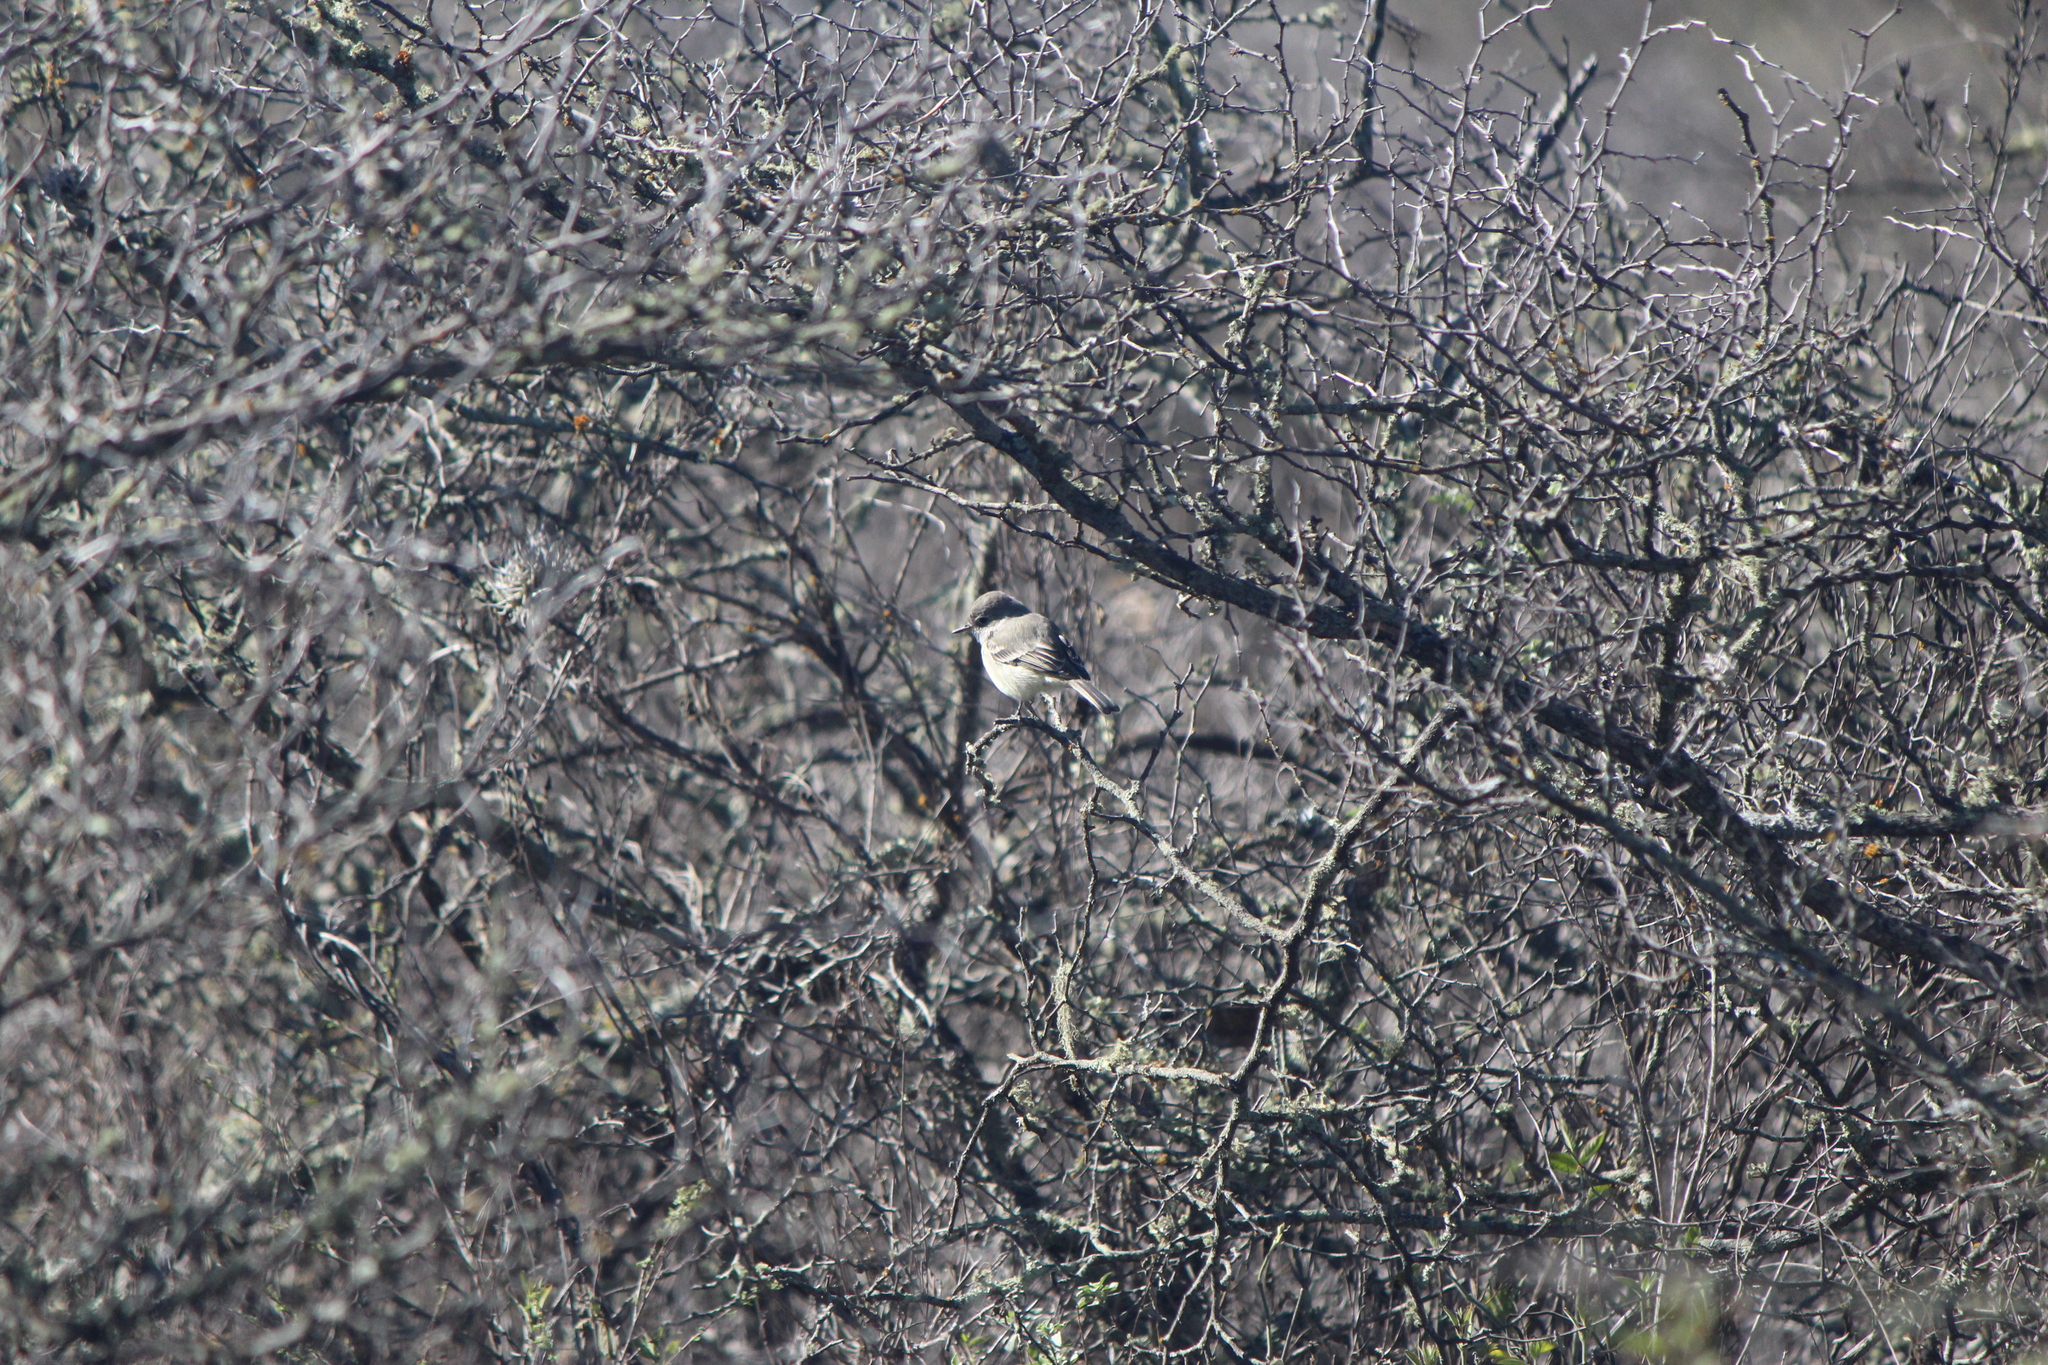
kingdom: Animalia
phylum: Chordata
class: Aves
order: Passeriformes
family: Tyrannidae
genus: Empidonax
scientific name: Empidonax wrightii
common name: Gray flycatcher
